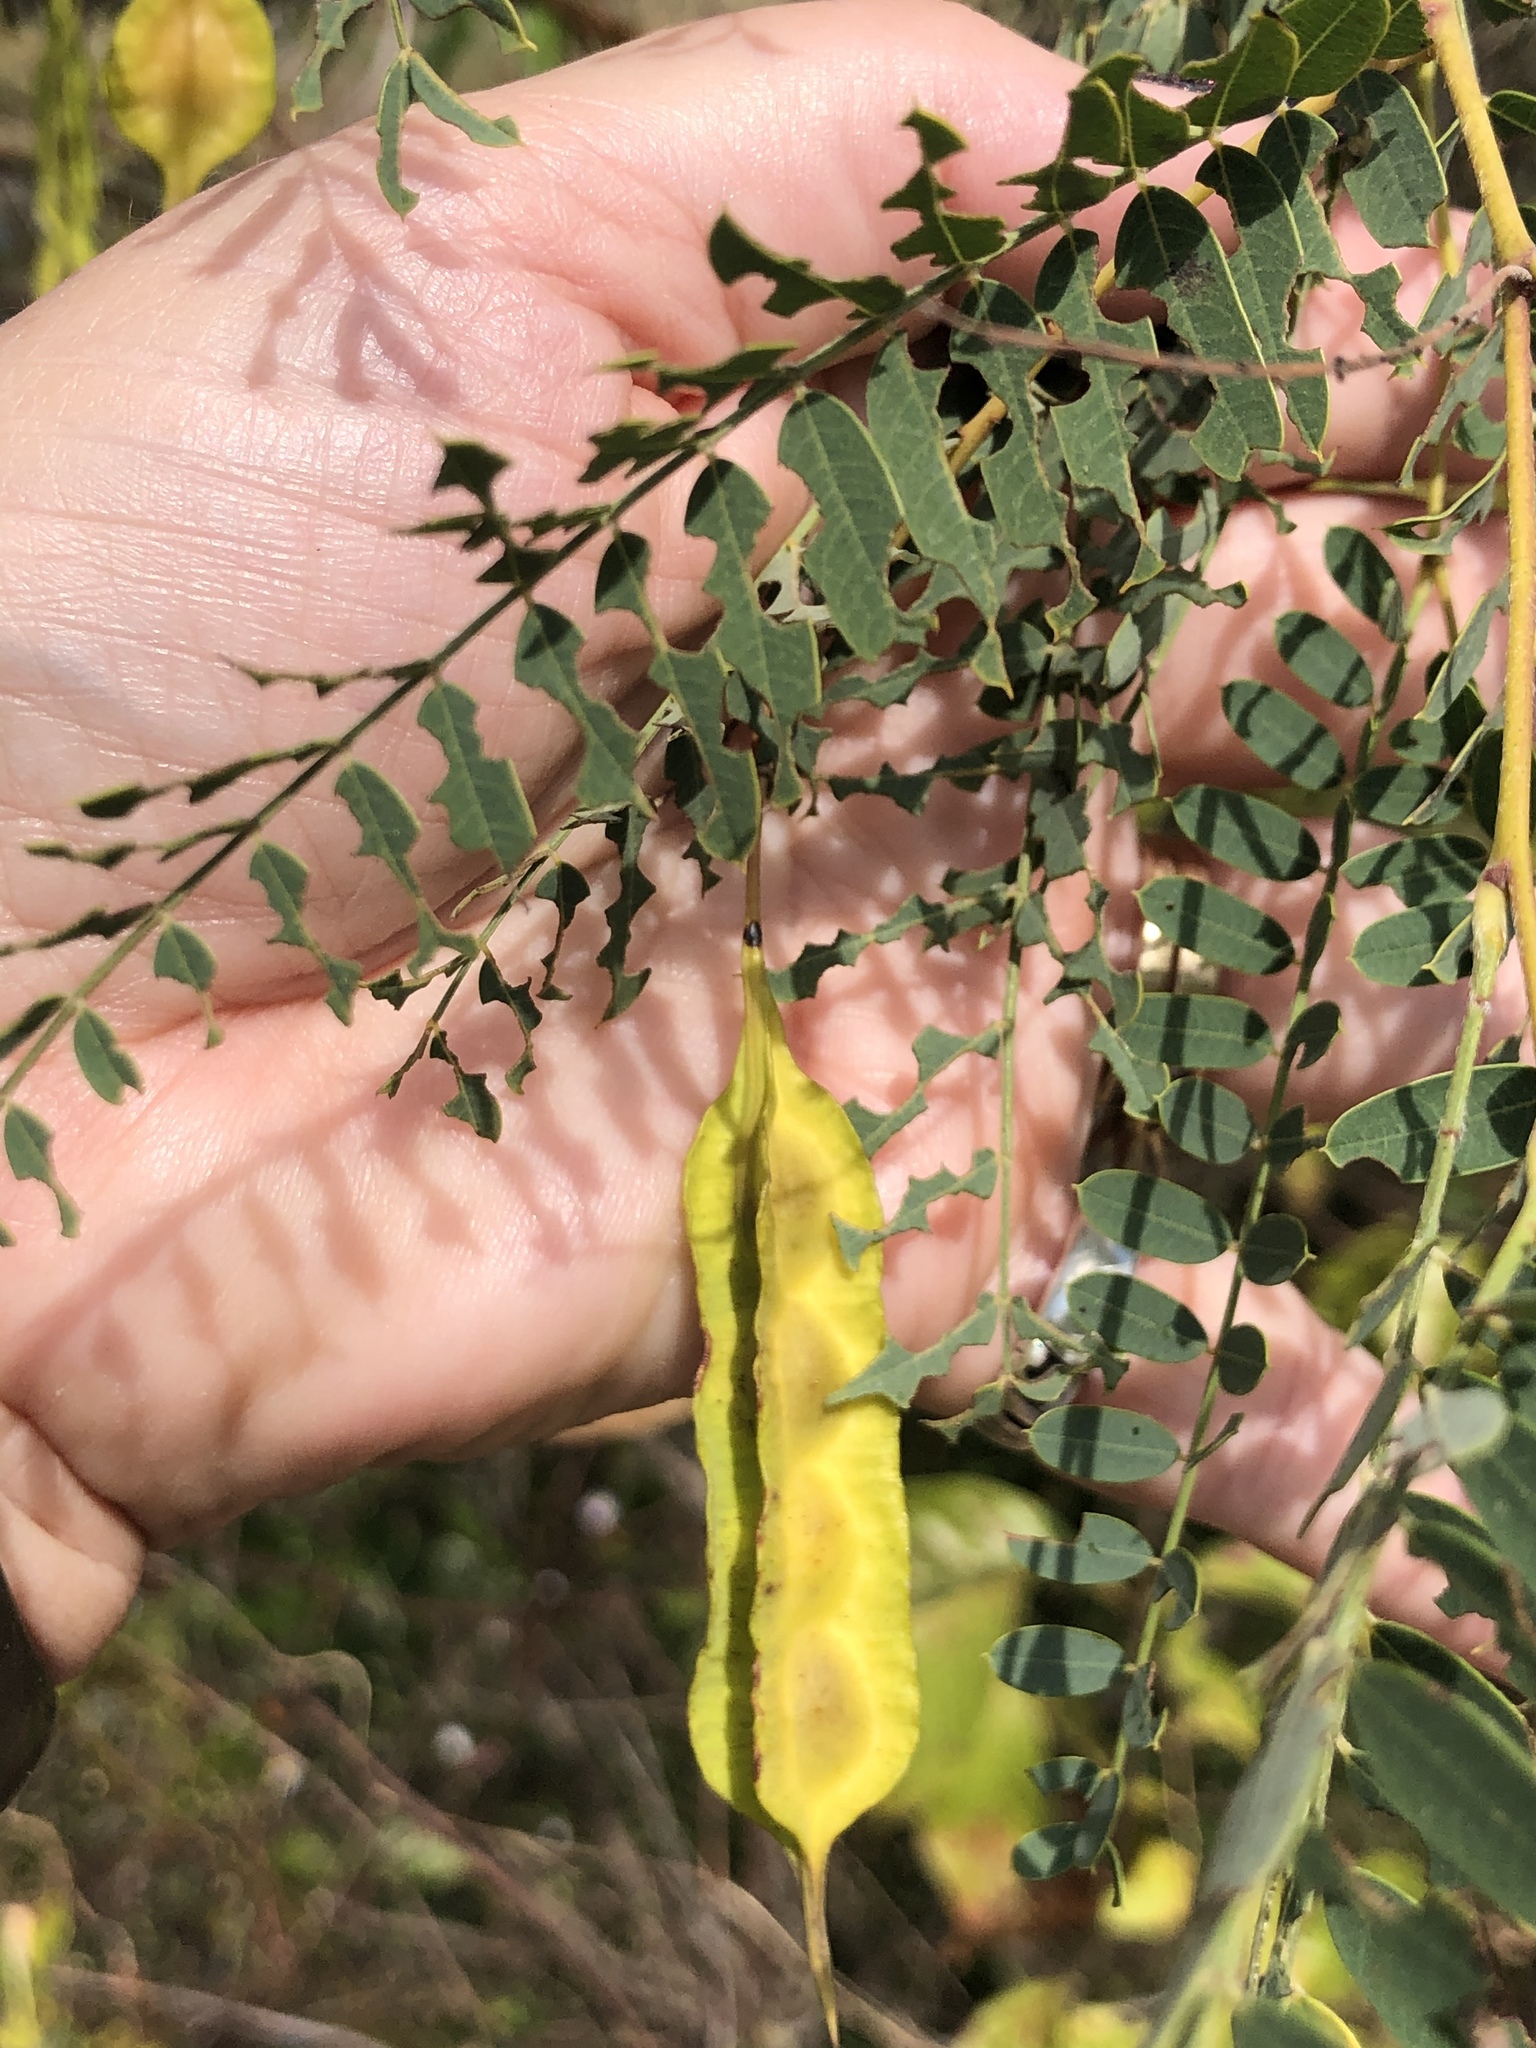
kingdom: Plantae
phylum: Tracheophyta
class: Magnoliopsida
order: Fabales
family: Fabaceae
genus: Sesbania
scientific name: Sesbania drummondii
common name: Poison-bean
